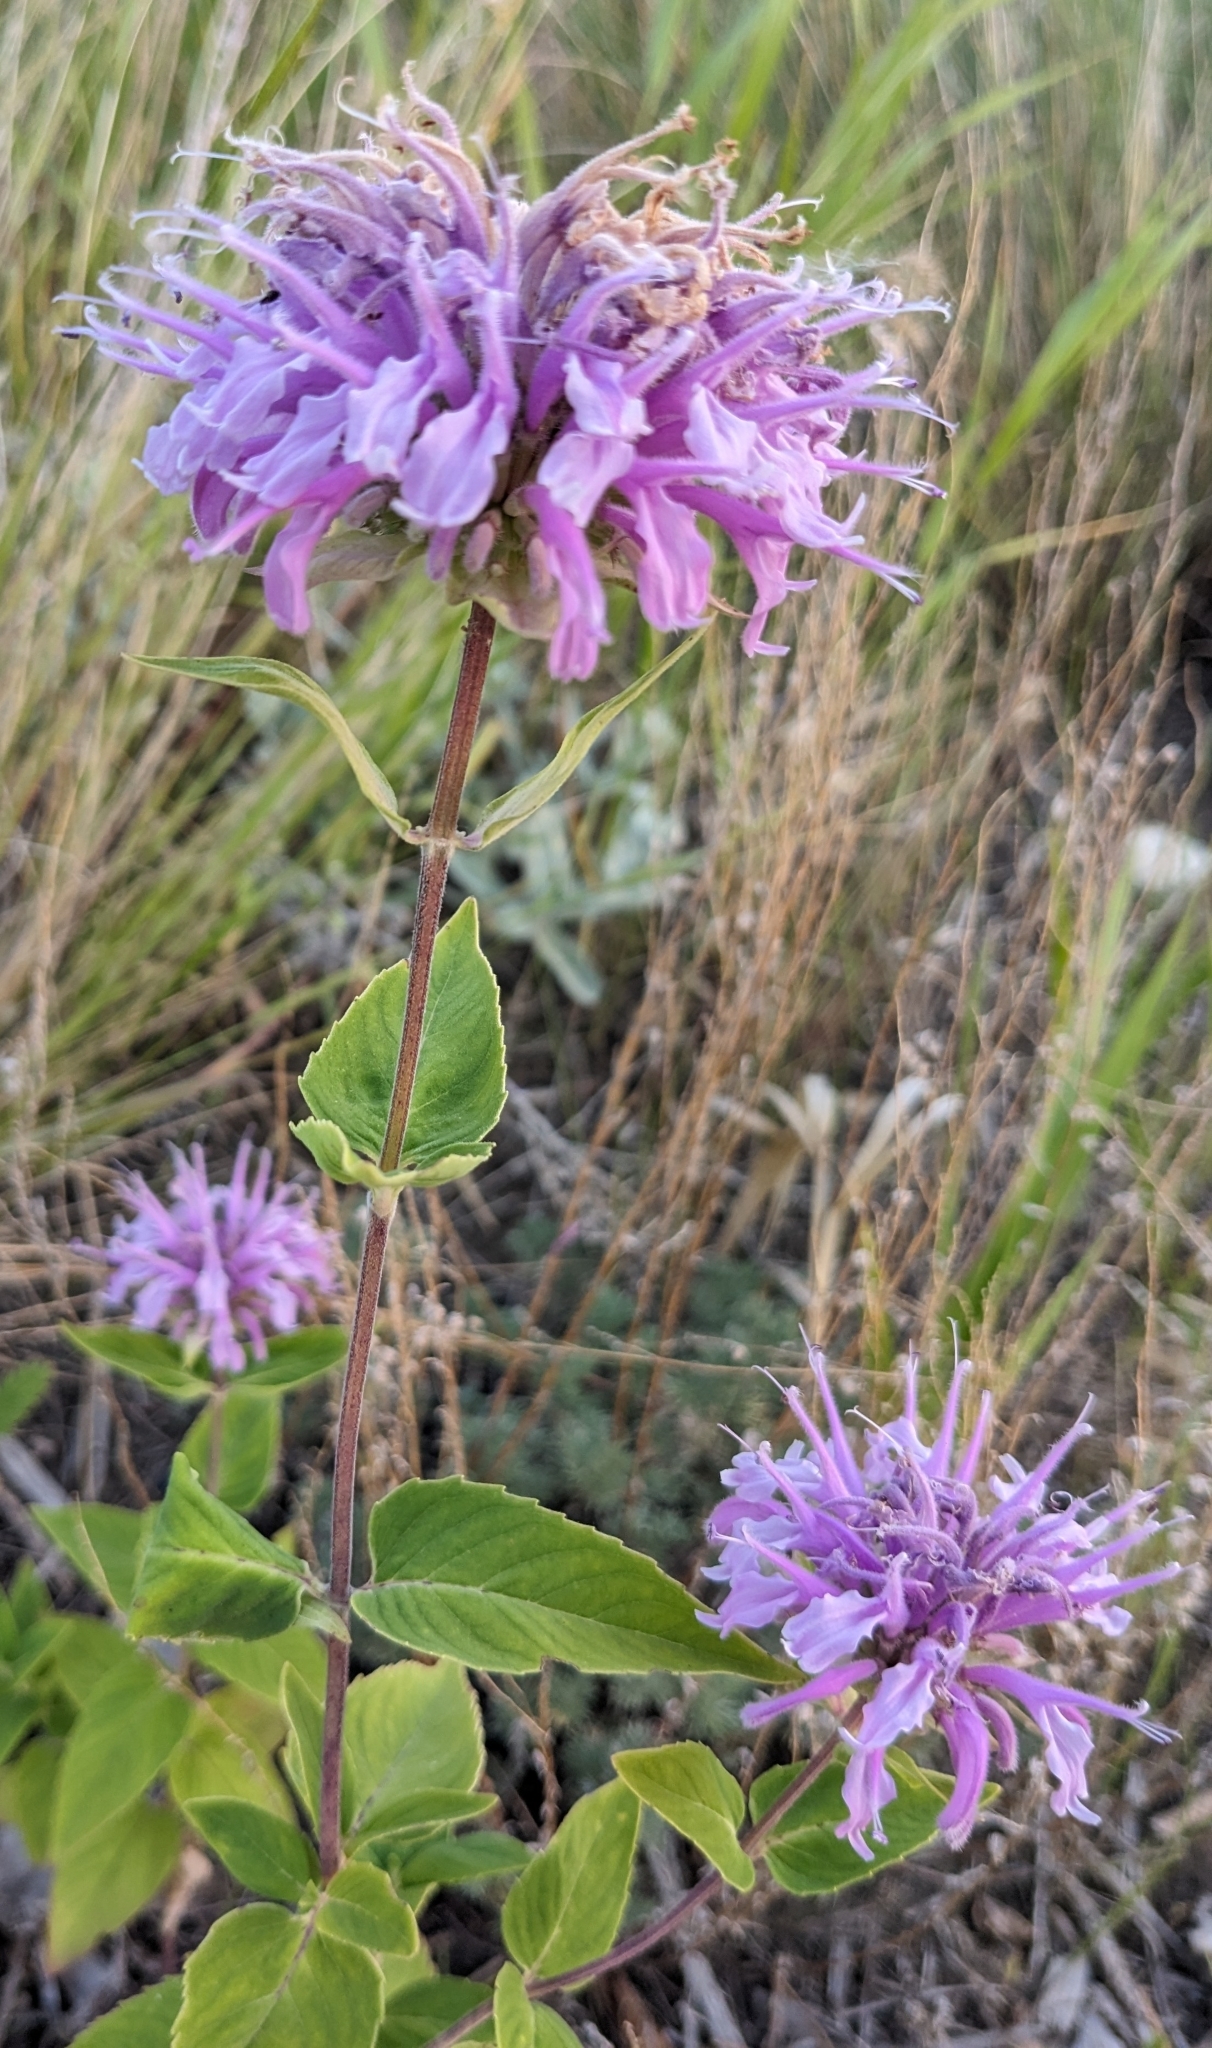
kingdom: Plantae
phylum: Tracheophyta
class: Magnoliopsida
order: Lamiales
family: Lamiaceae
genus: Monarda
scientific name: Monarda fistulosa
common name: Purple beebalm
